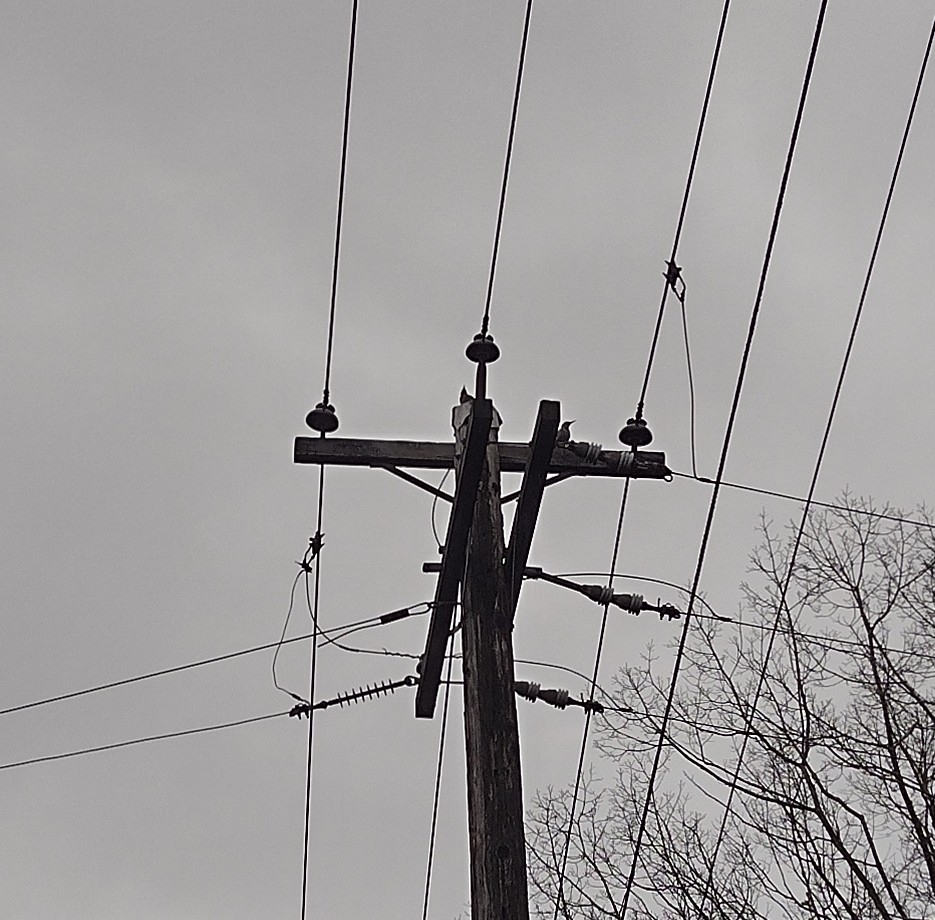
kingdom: Animalia
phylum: Chordata
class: Aves
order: Piciformes
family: Picidae
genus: Colaptes
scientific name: Colaptes auratus
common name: Northern flicker
